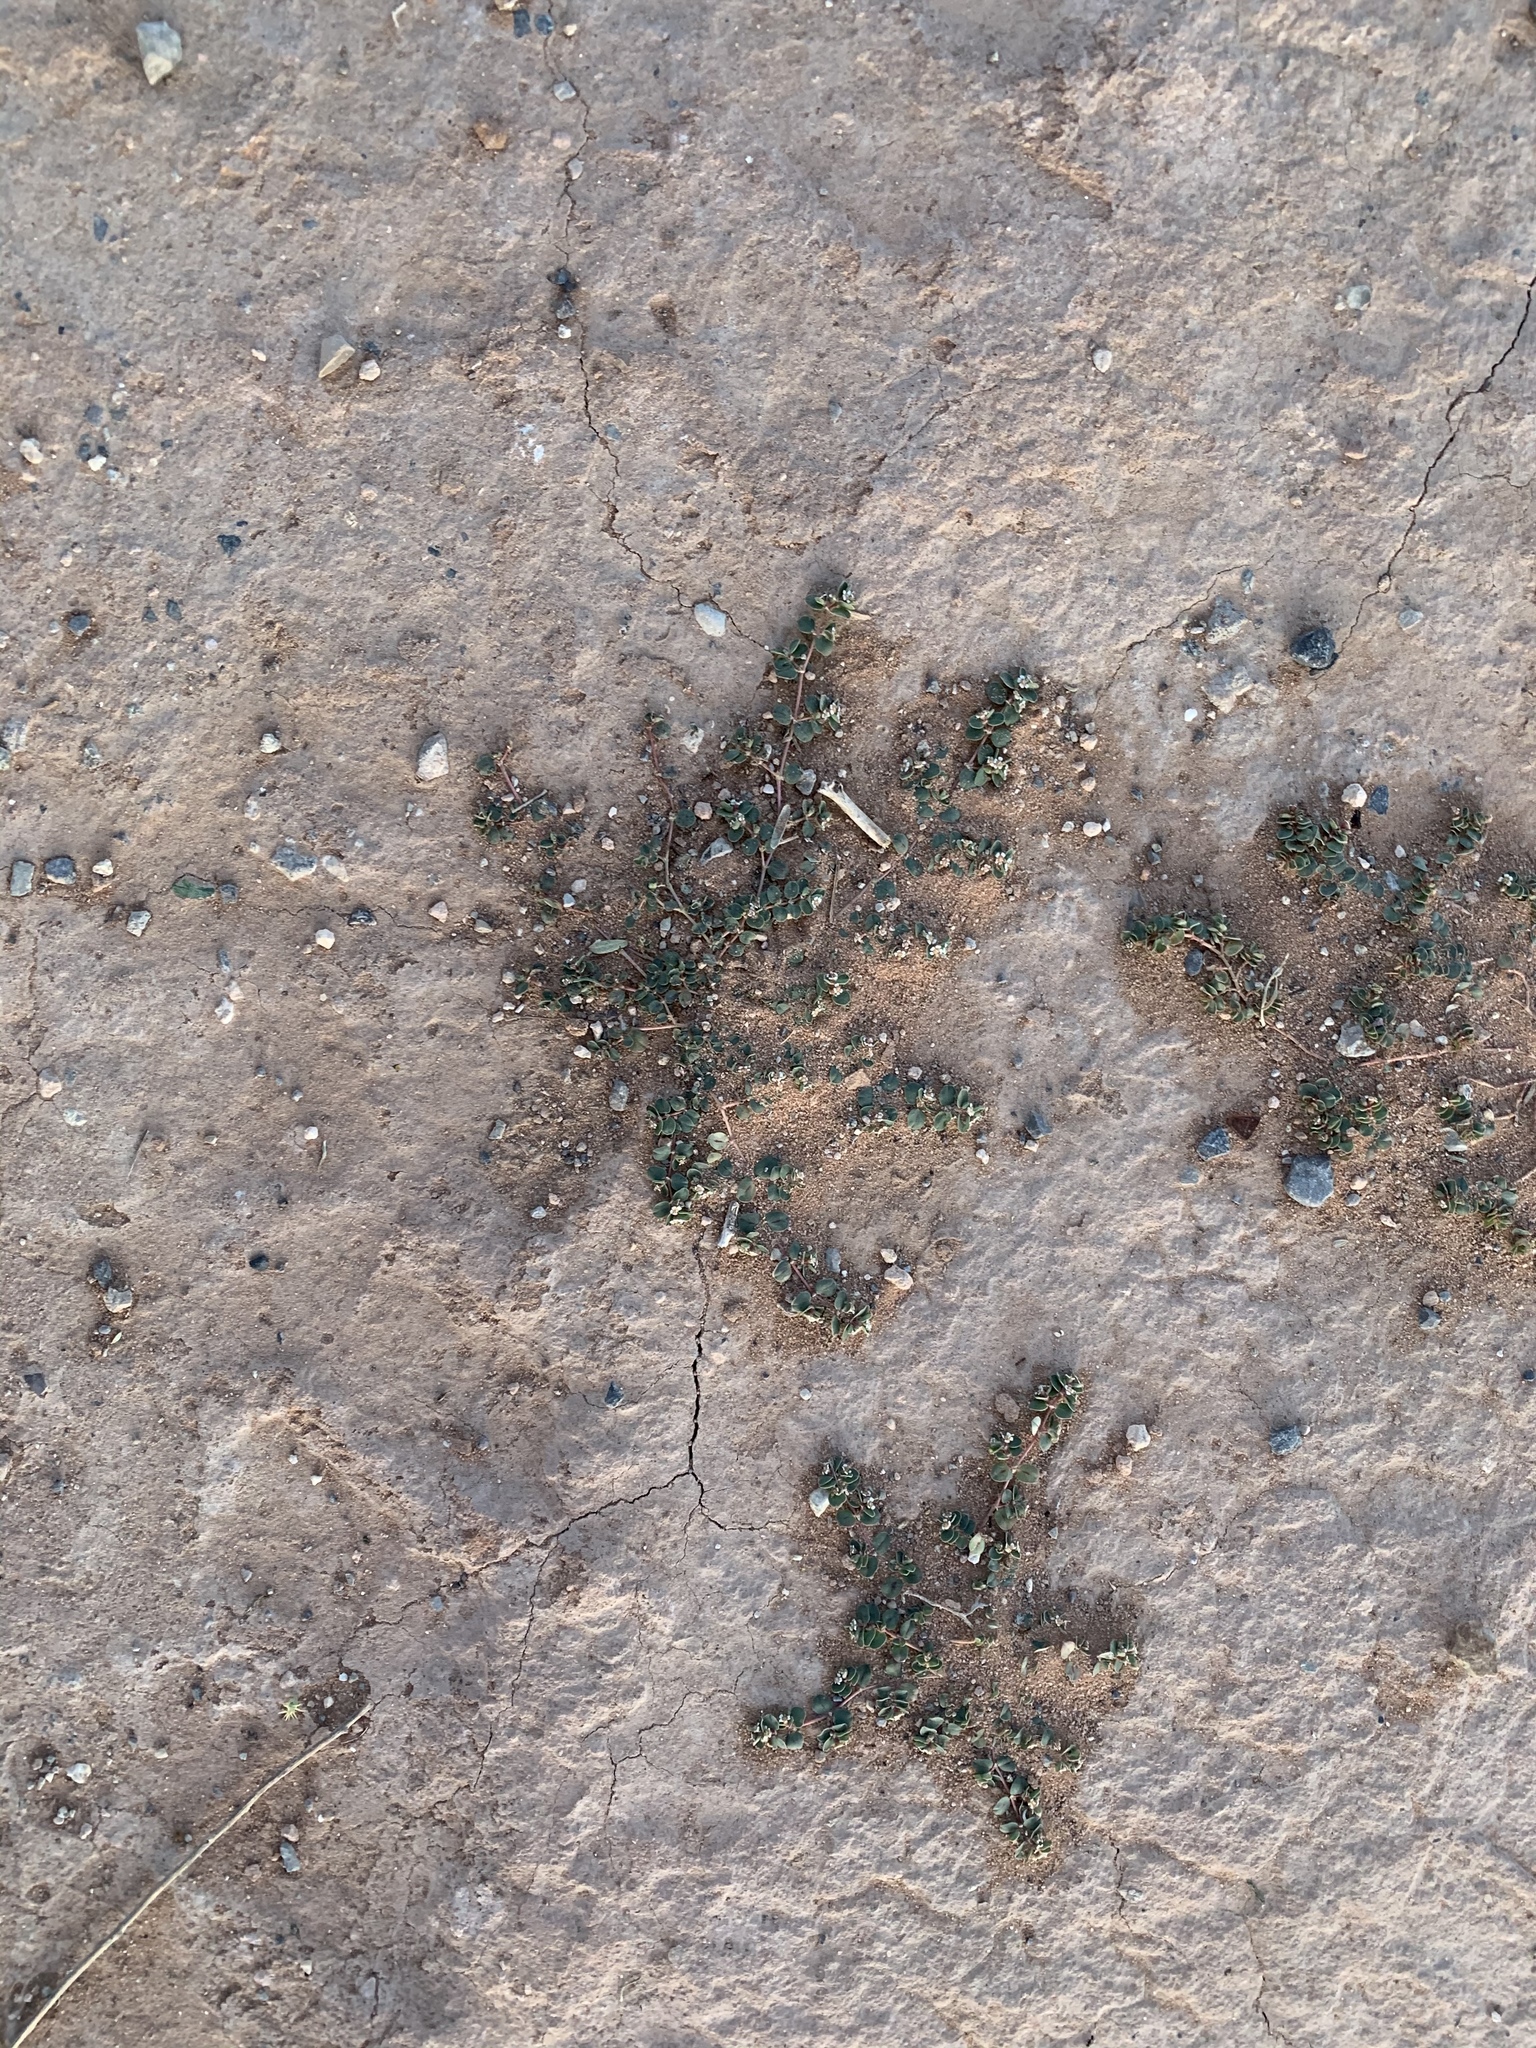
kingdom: Plantae
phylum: Tracheophyta
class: Magnoliopsida
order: Malpighiales
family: Euphorbiaceae
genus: Euphorbia
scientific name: Euphorbia albomarginata
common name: Whitemargin sandmat
